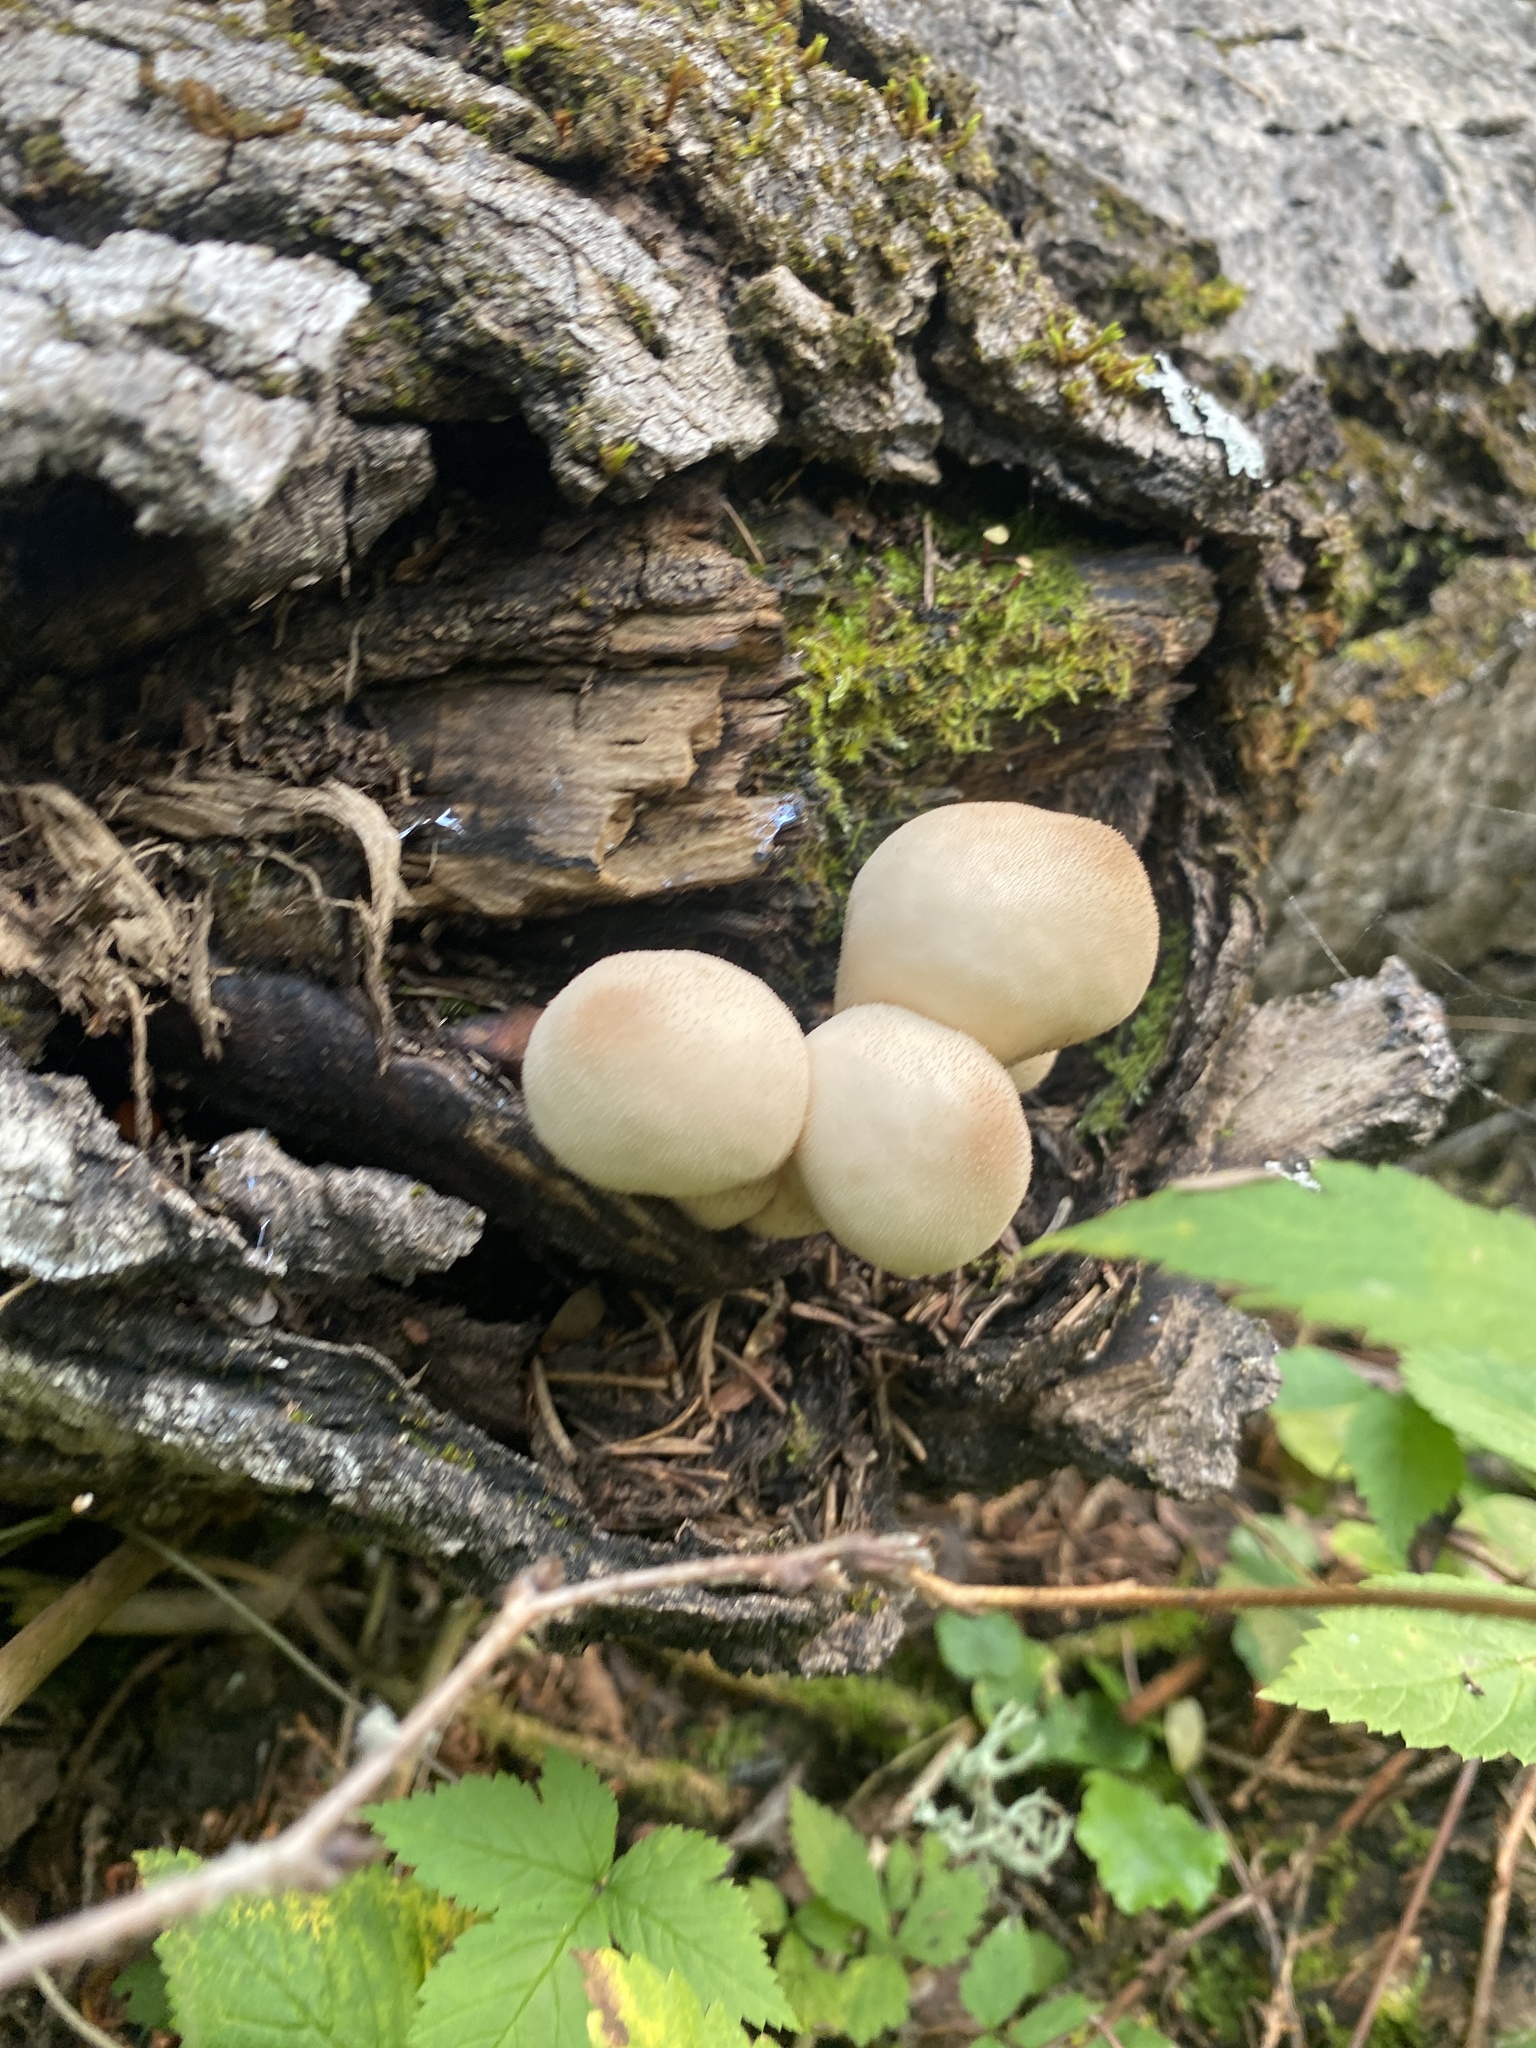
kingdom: Fungi
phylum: Basidiomycota
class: Agaricomycetes
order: Agaricales
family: Lycoperdaceae
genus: Apioperdon
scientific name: Apioperdon pyriforme
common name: Pear-shaped puffball
